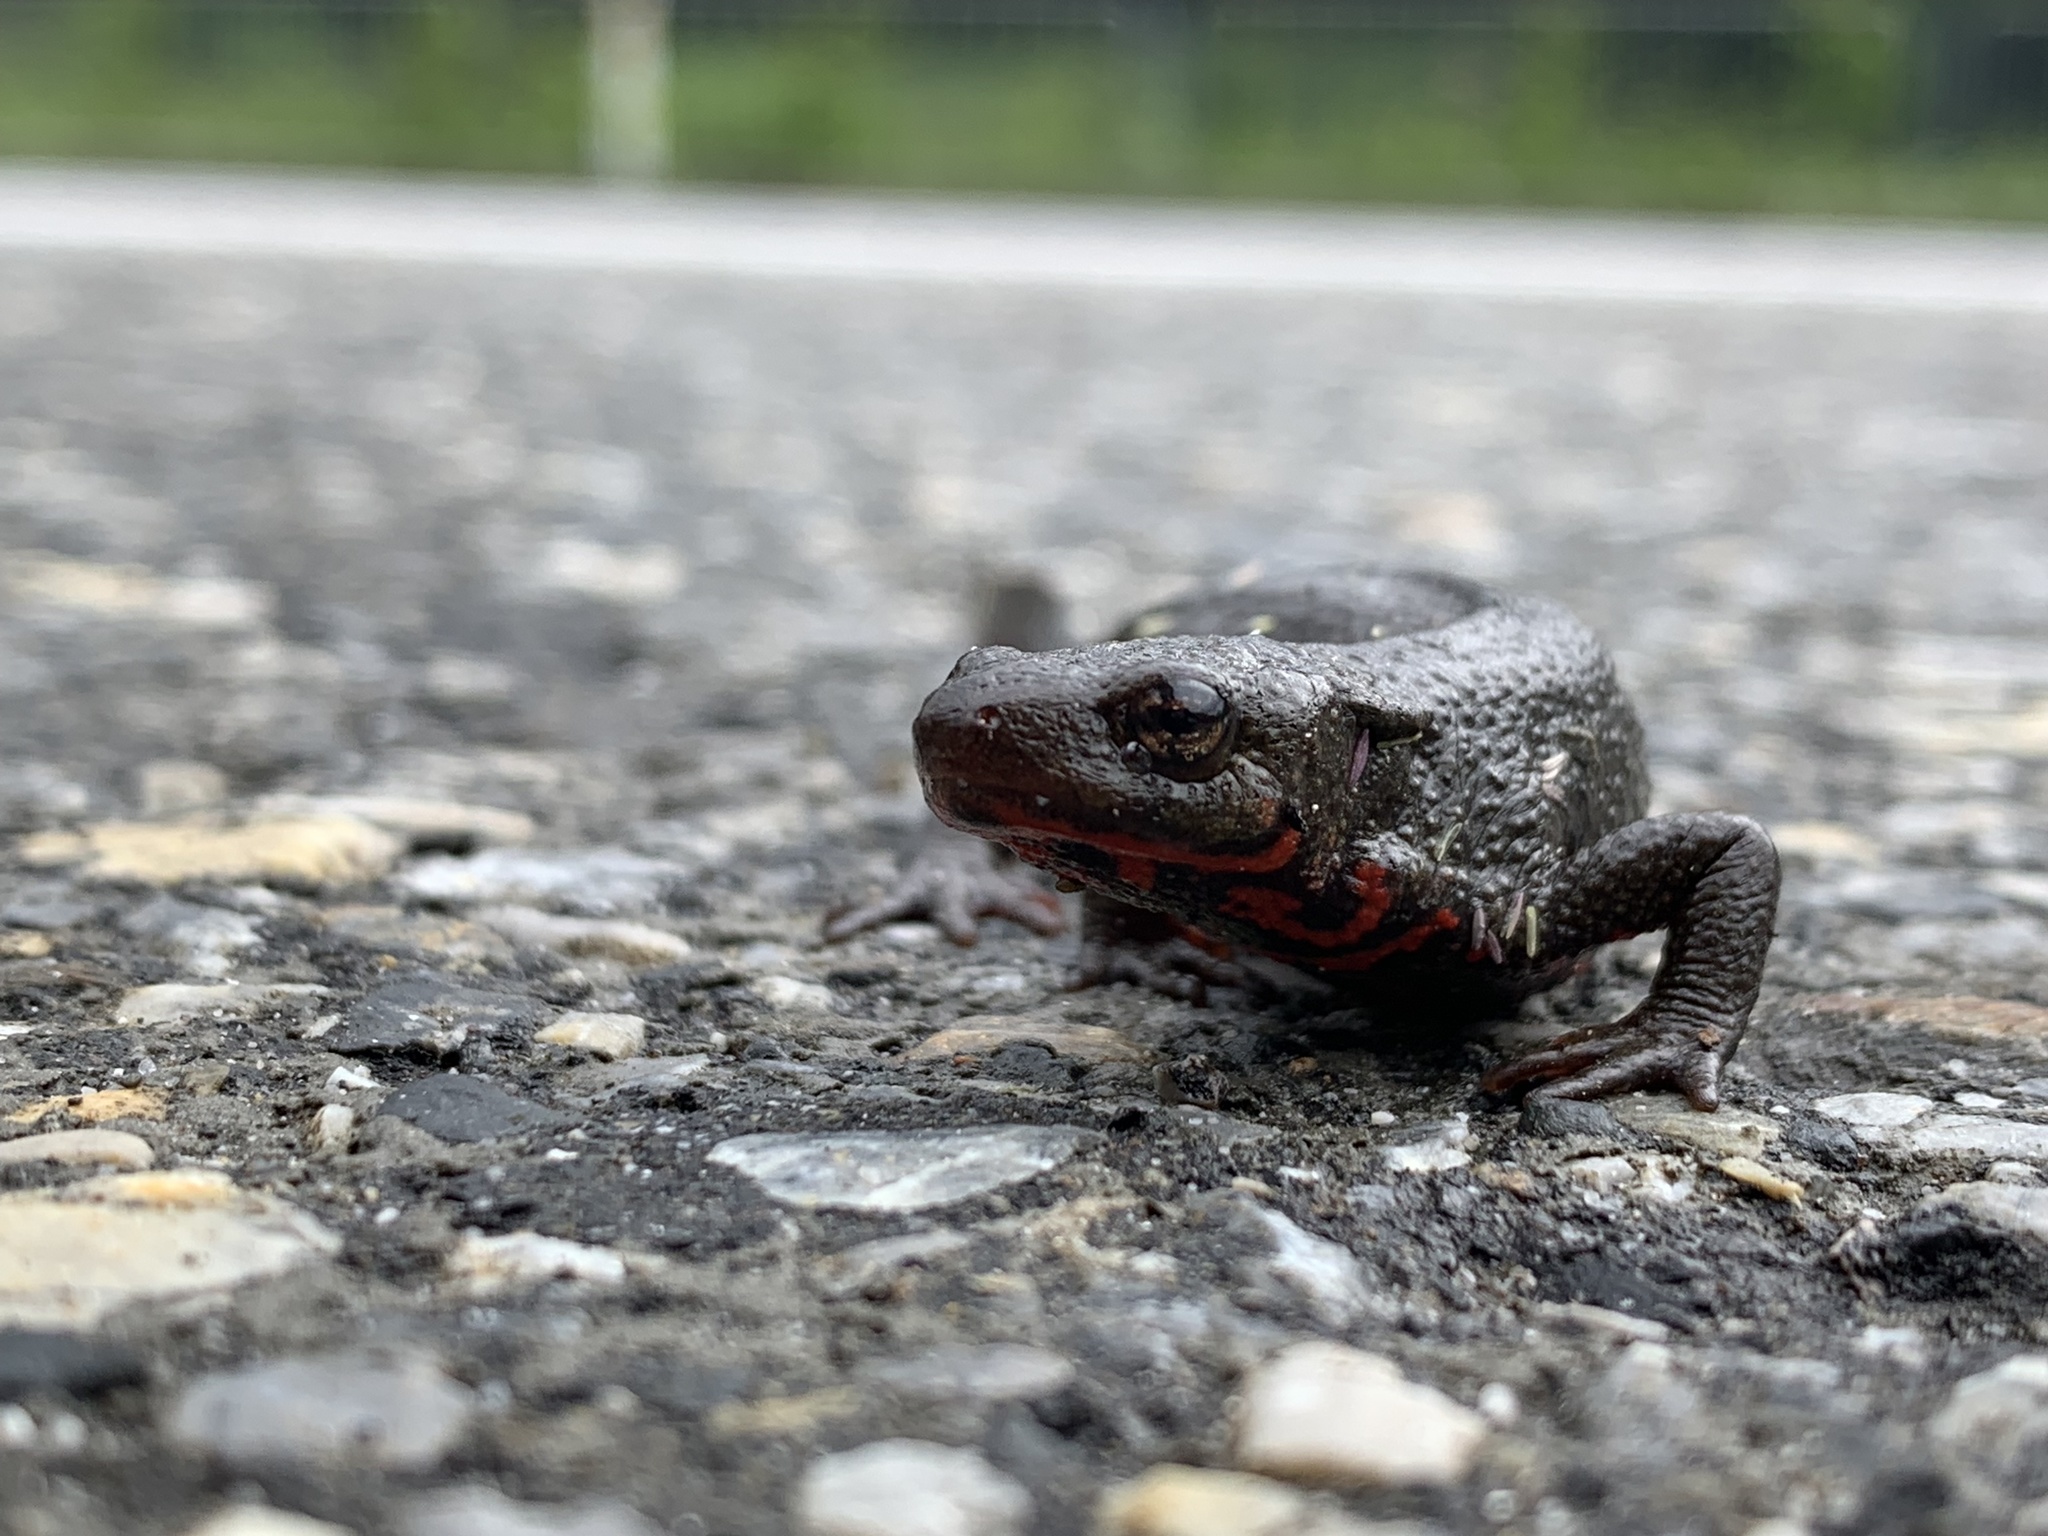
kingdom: Animalia
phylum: Chordata
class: Amphibia
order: Caudata
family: Salamandridae
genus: Cynops
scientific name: Cynops pyrrhogaster
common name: Japanese fire-bellied newt
